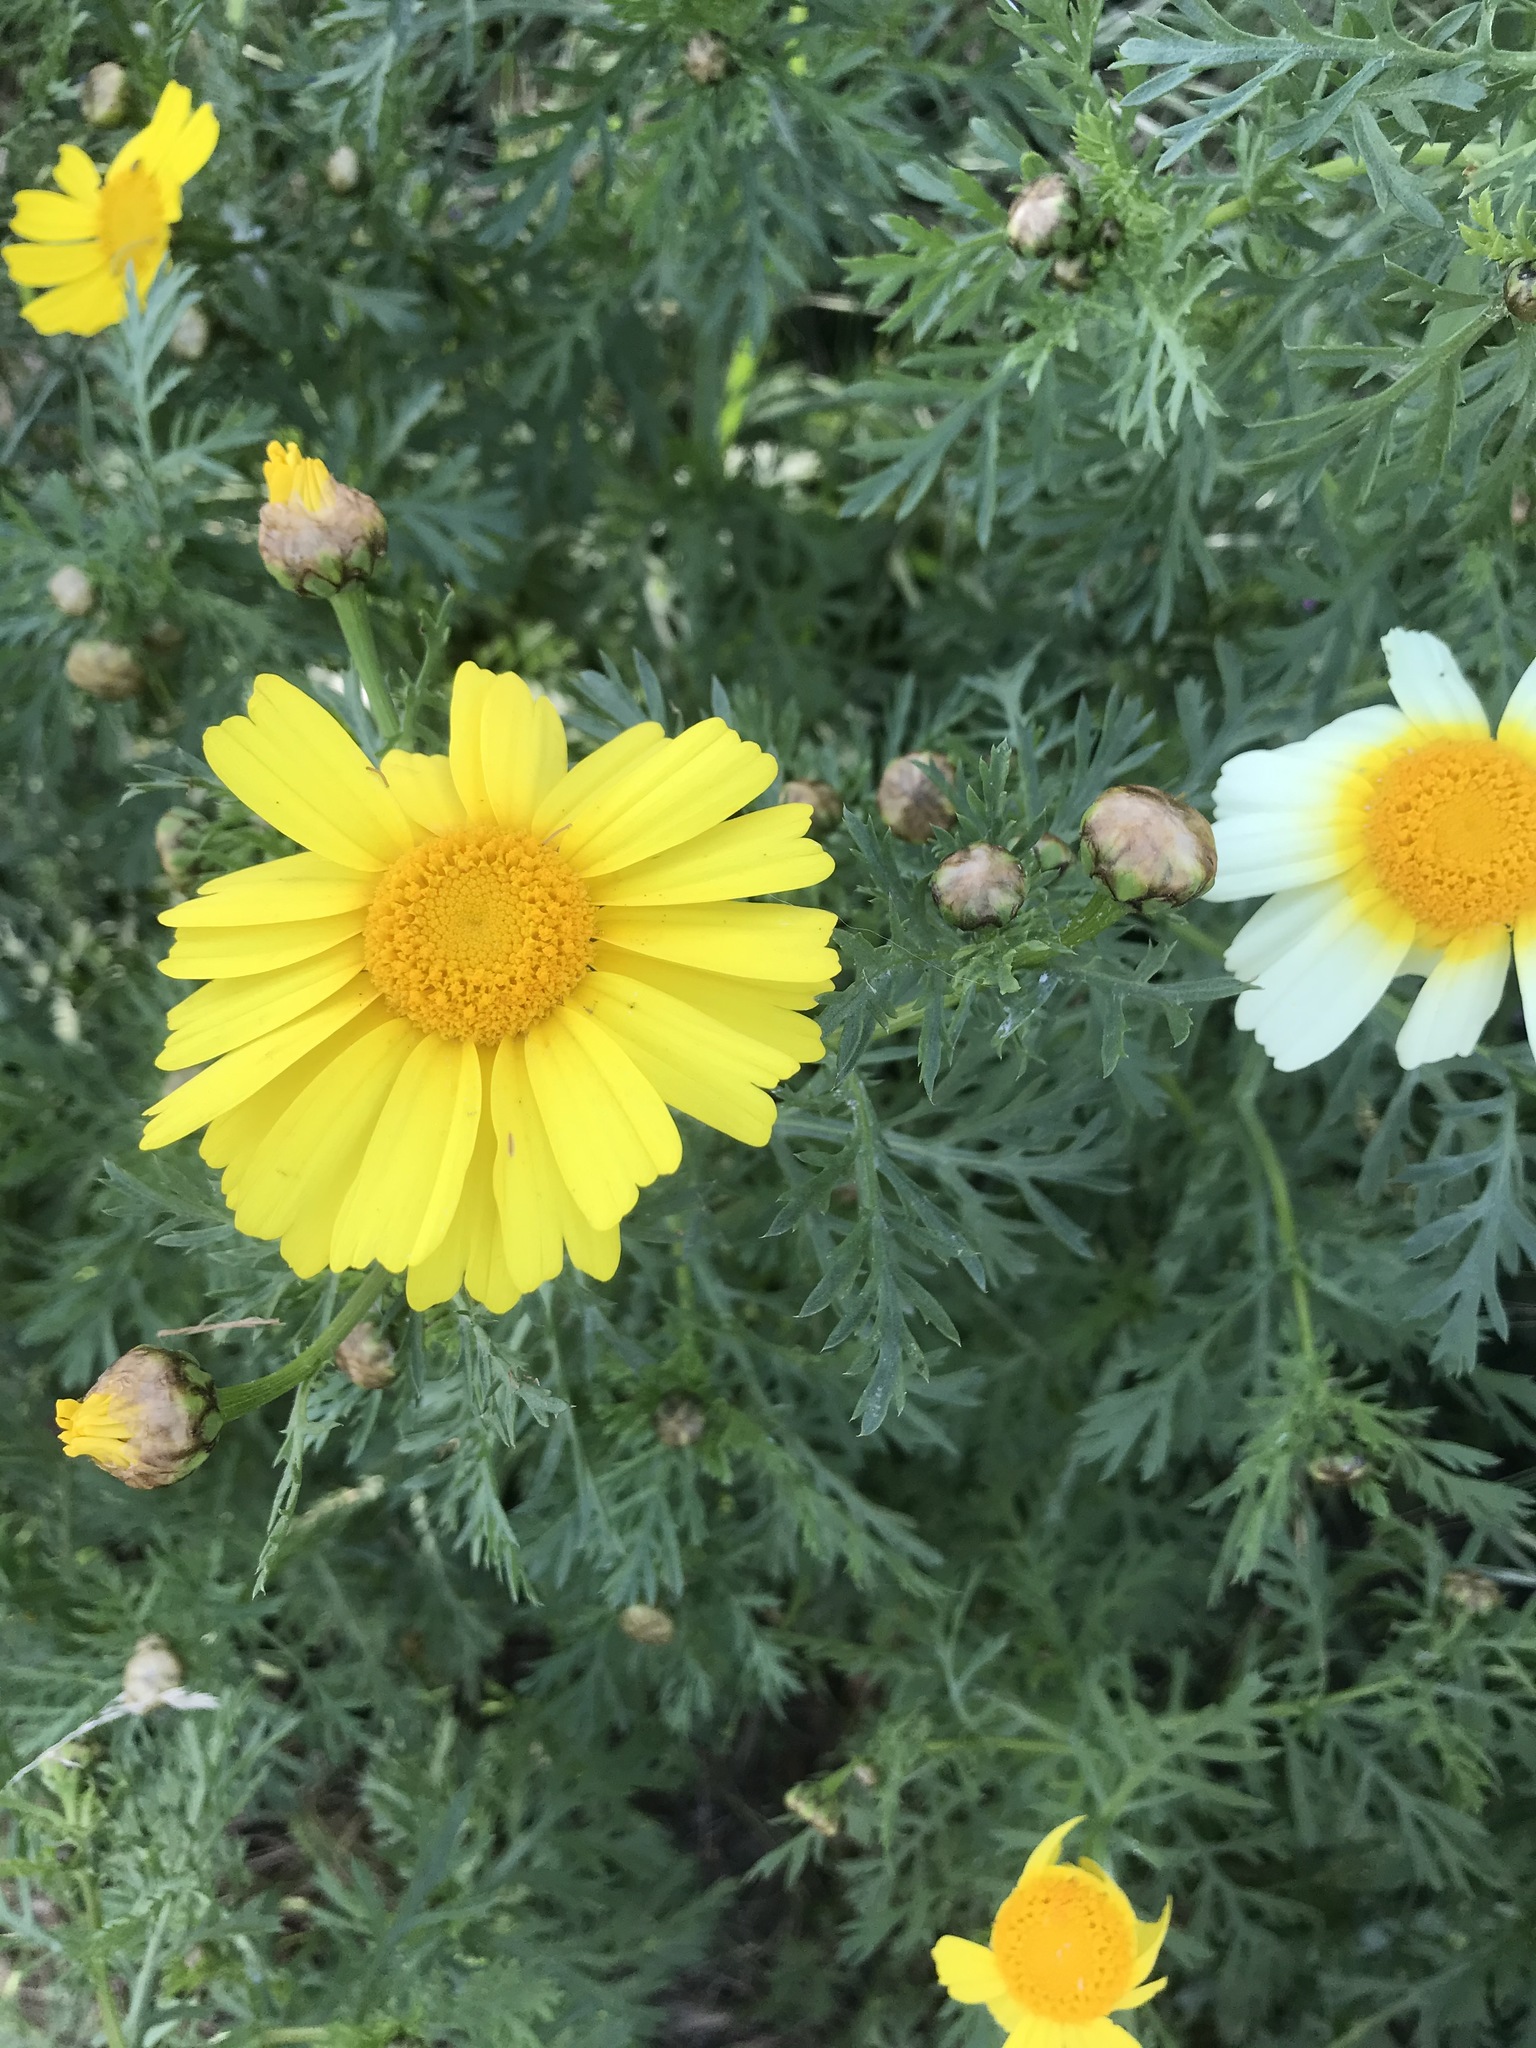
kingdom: Plantae
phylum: Tracheophyta
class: Magnoliopsida
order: Asterales
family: Asteraceae
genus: Glebionis
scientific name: Glebionis coronaria
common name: Crowndaisy
